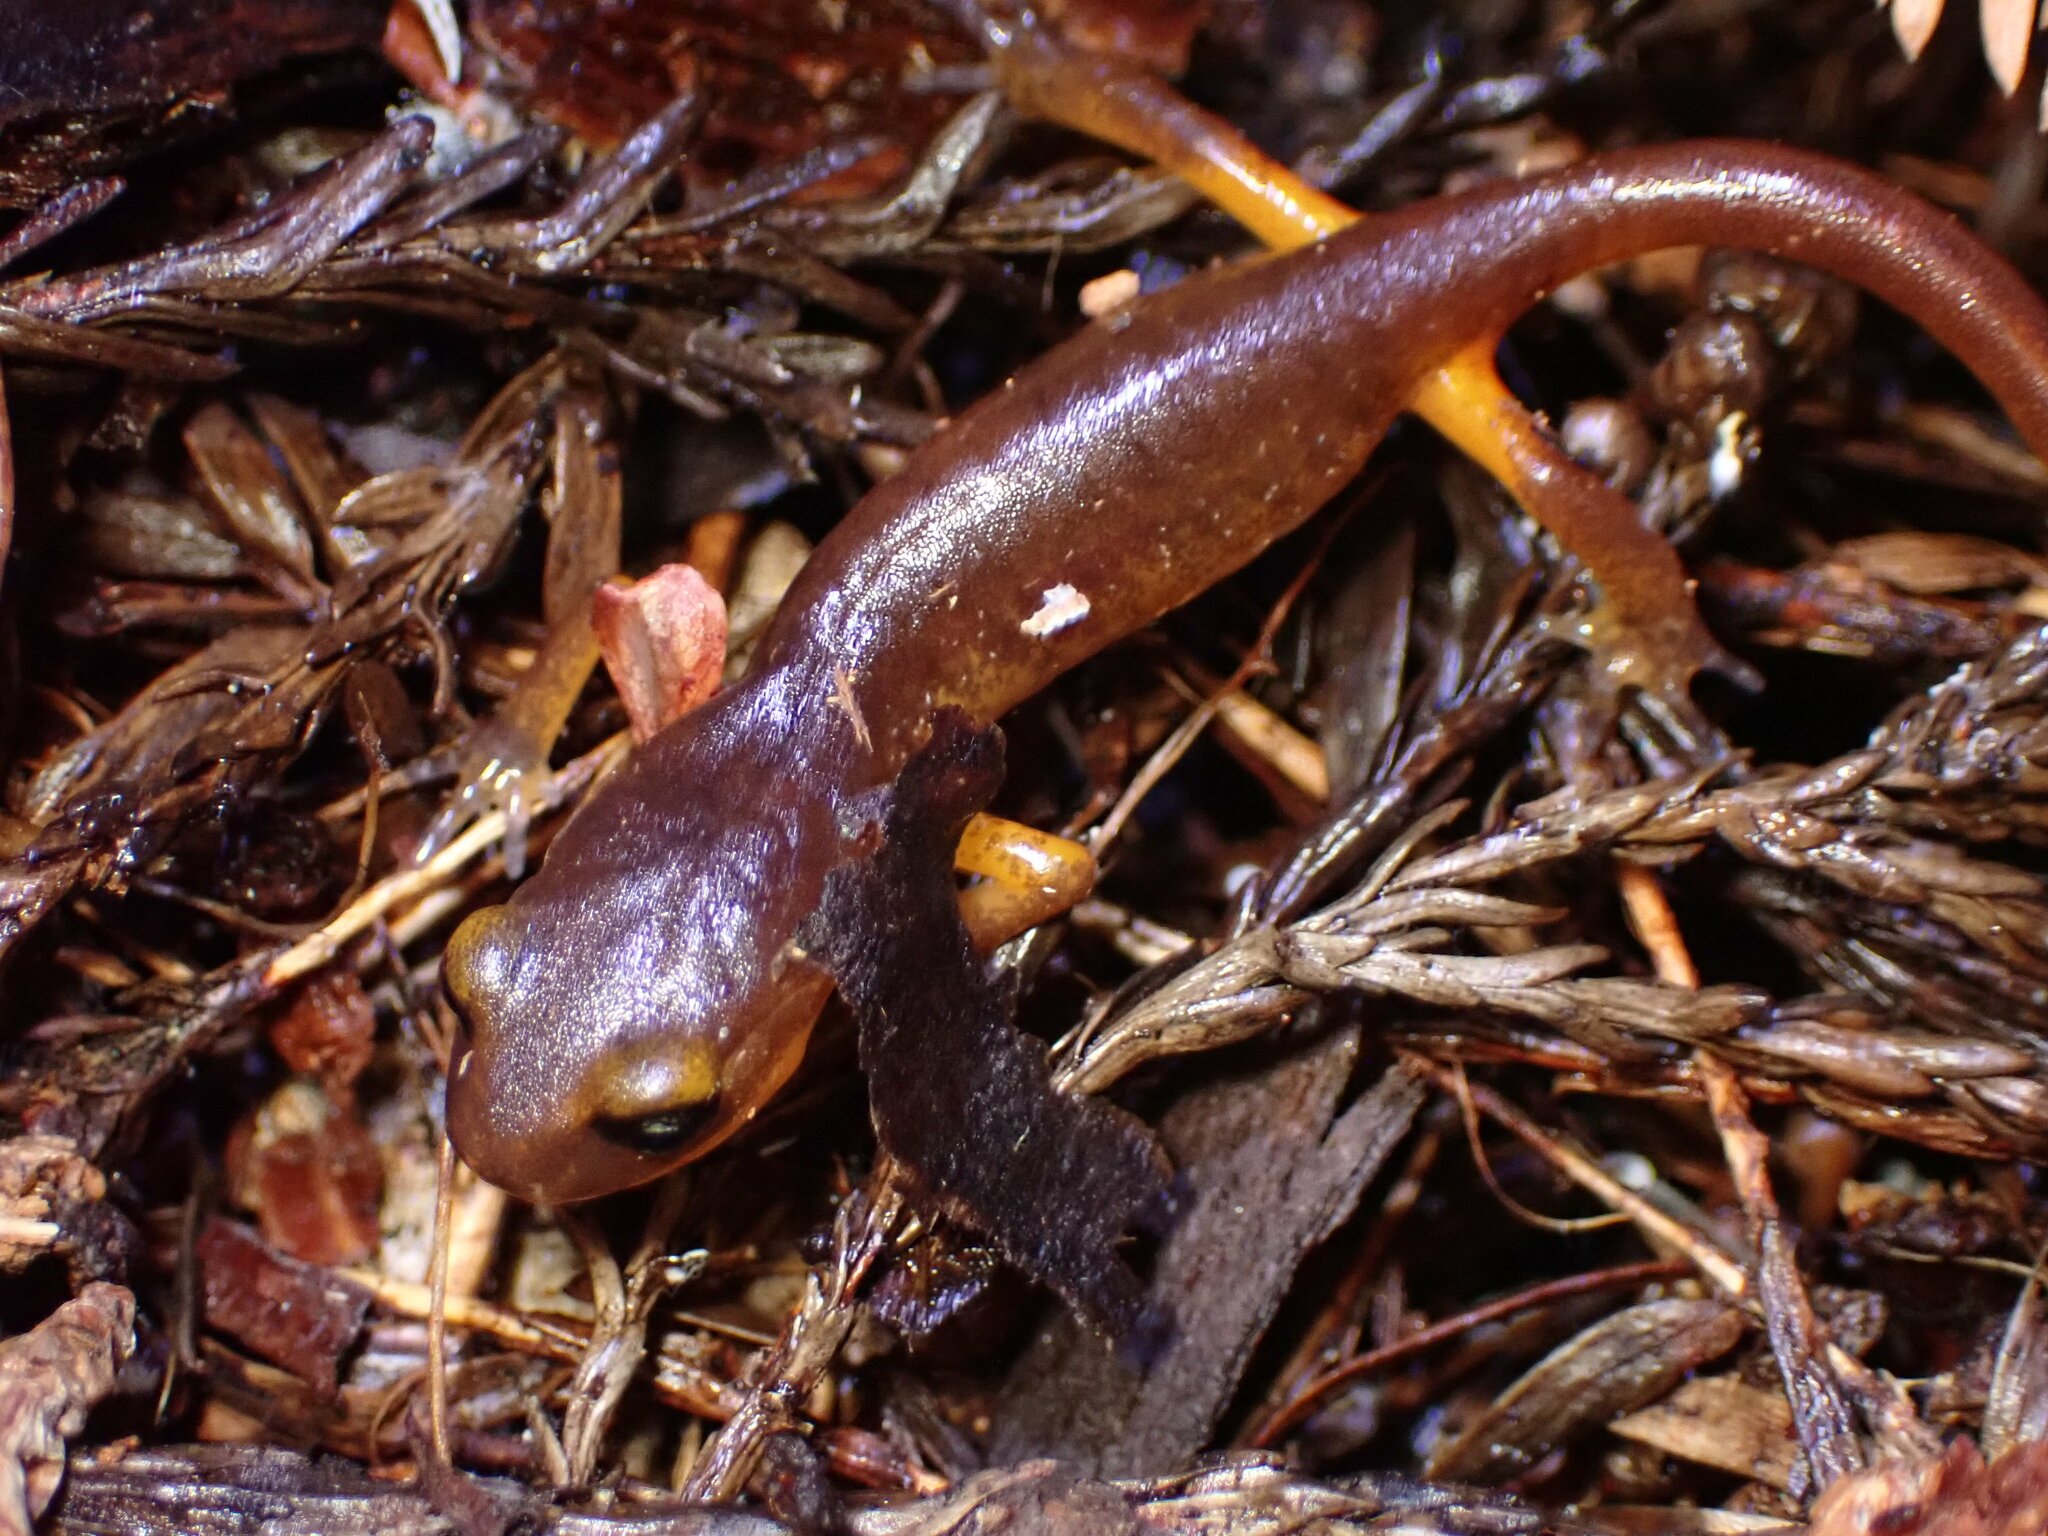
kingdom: Animalia
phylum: Chordata
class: Amphibia
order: Caudata
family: Plethodontidae
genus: Ensatina
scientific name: Ensatina eschscholtzii
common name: Ensatina
